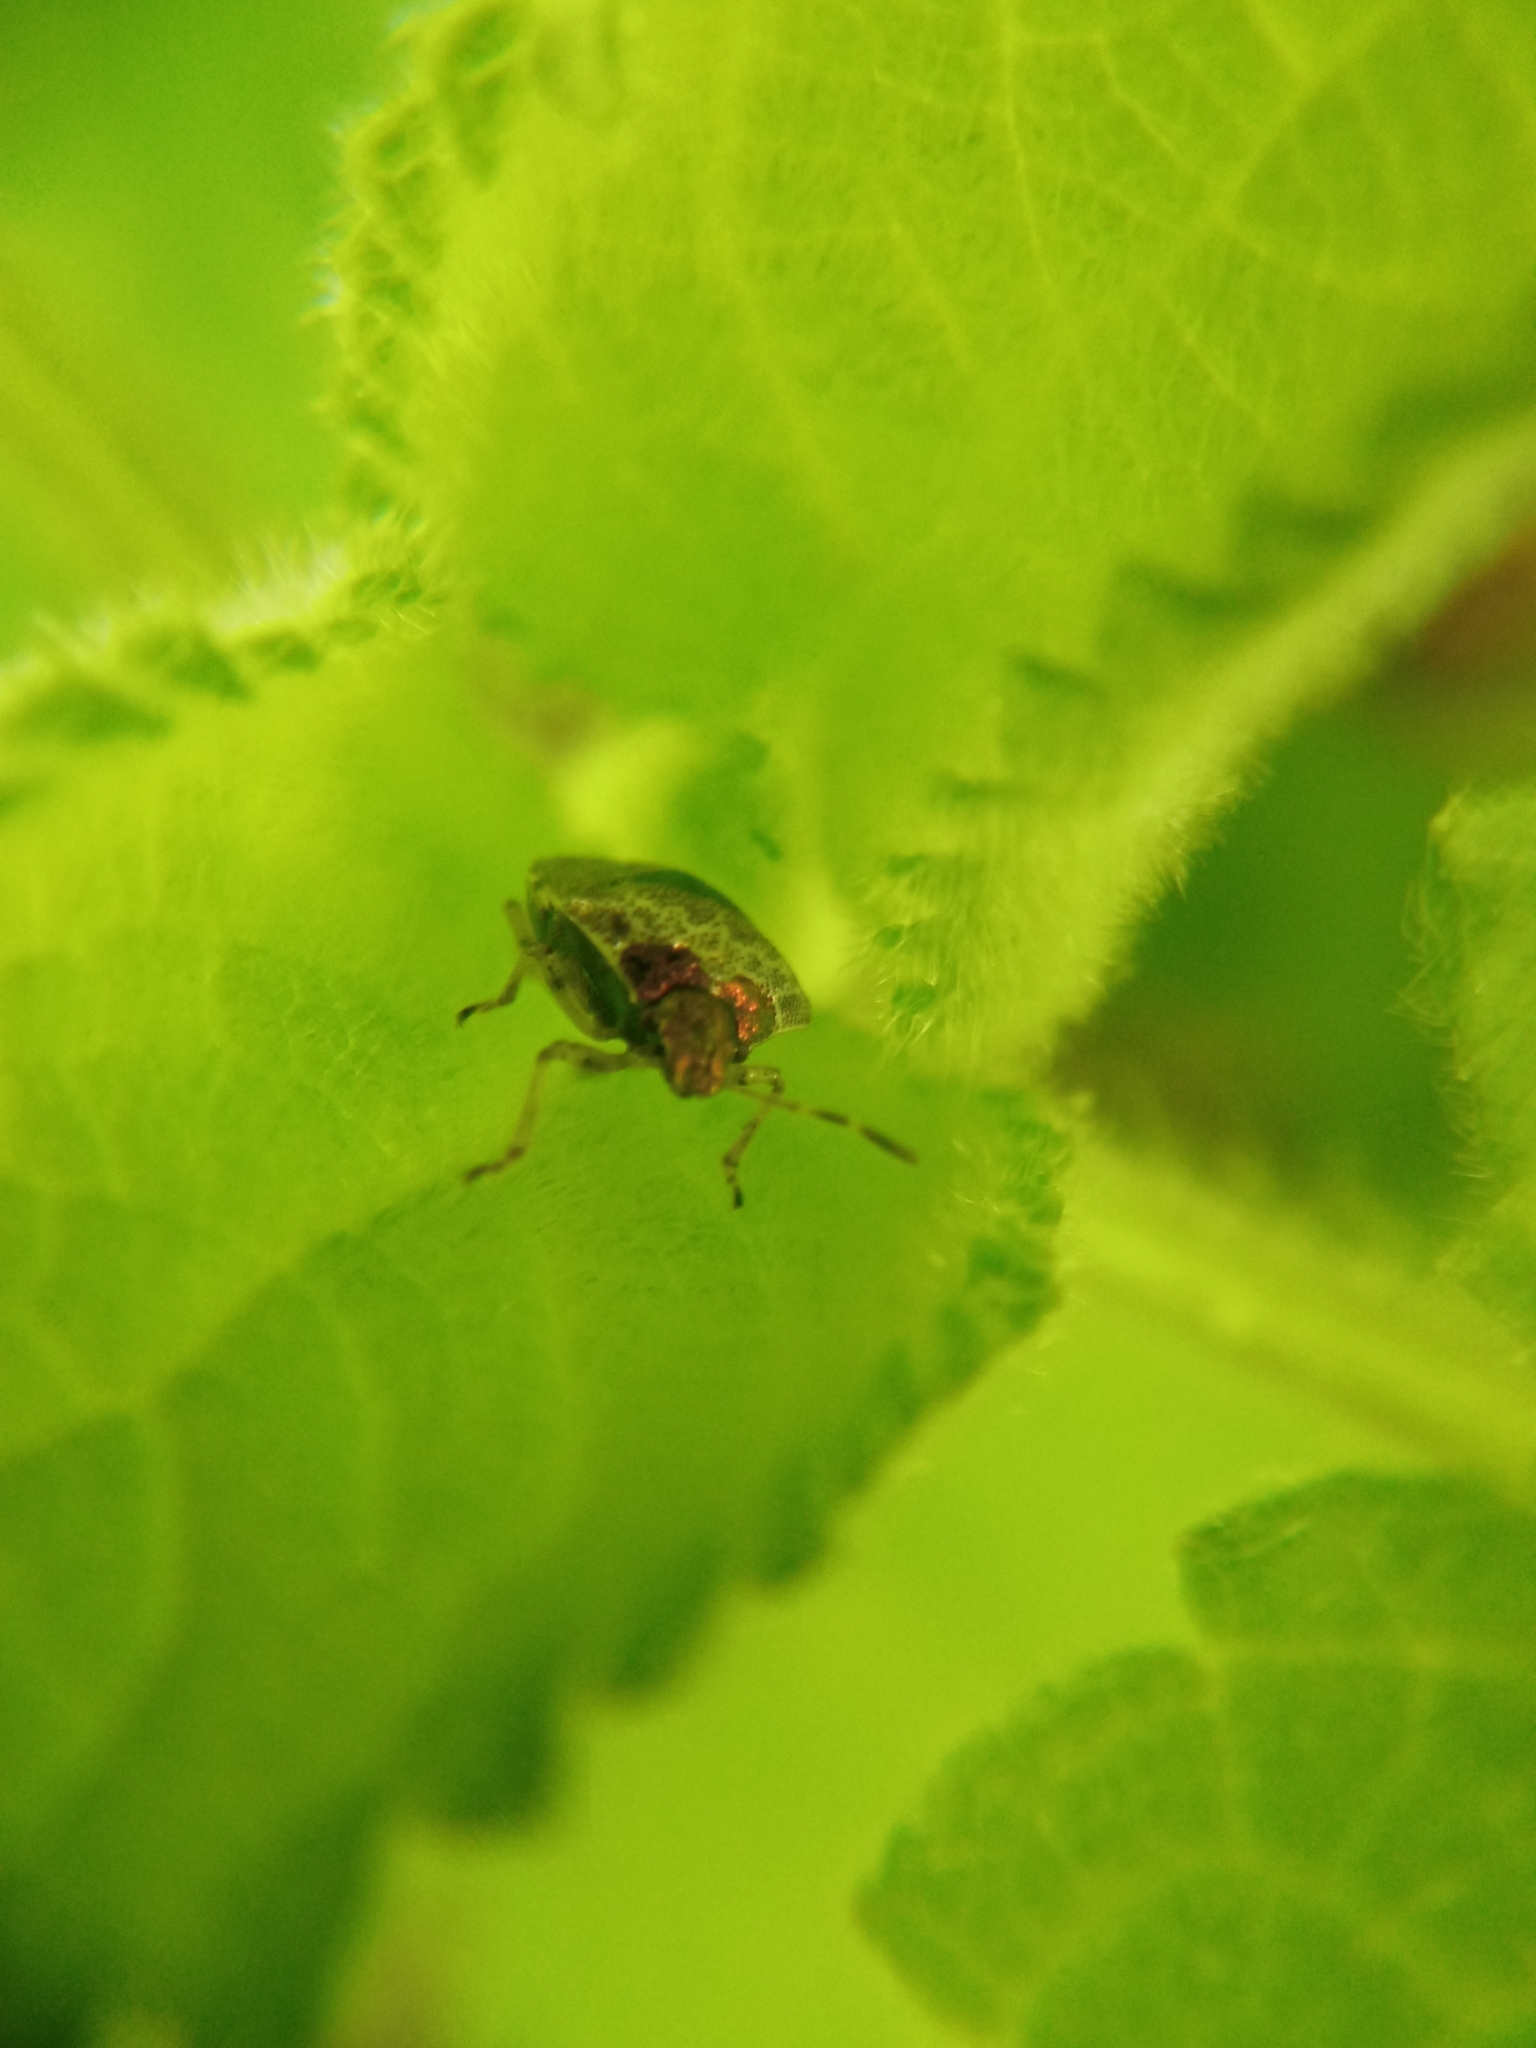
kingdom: Animalia
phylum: Arthropoda
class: Insecta
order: Hemiptera
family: Pentatomidae
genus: Eysarcoris
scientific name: Eysarcoris venustissimus
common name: Woundwort shieldbug
